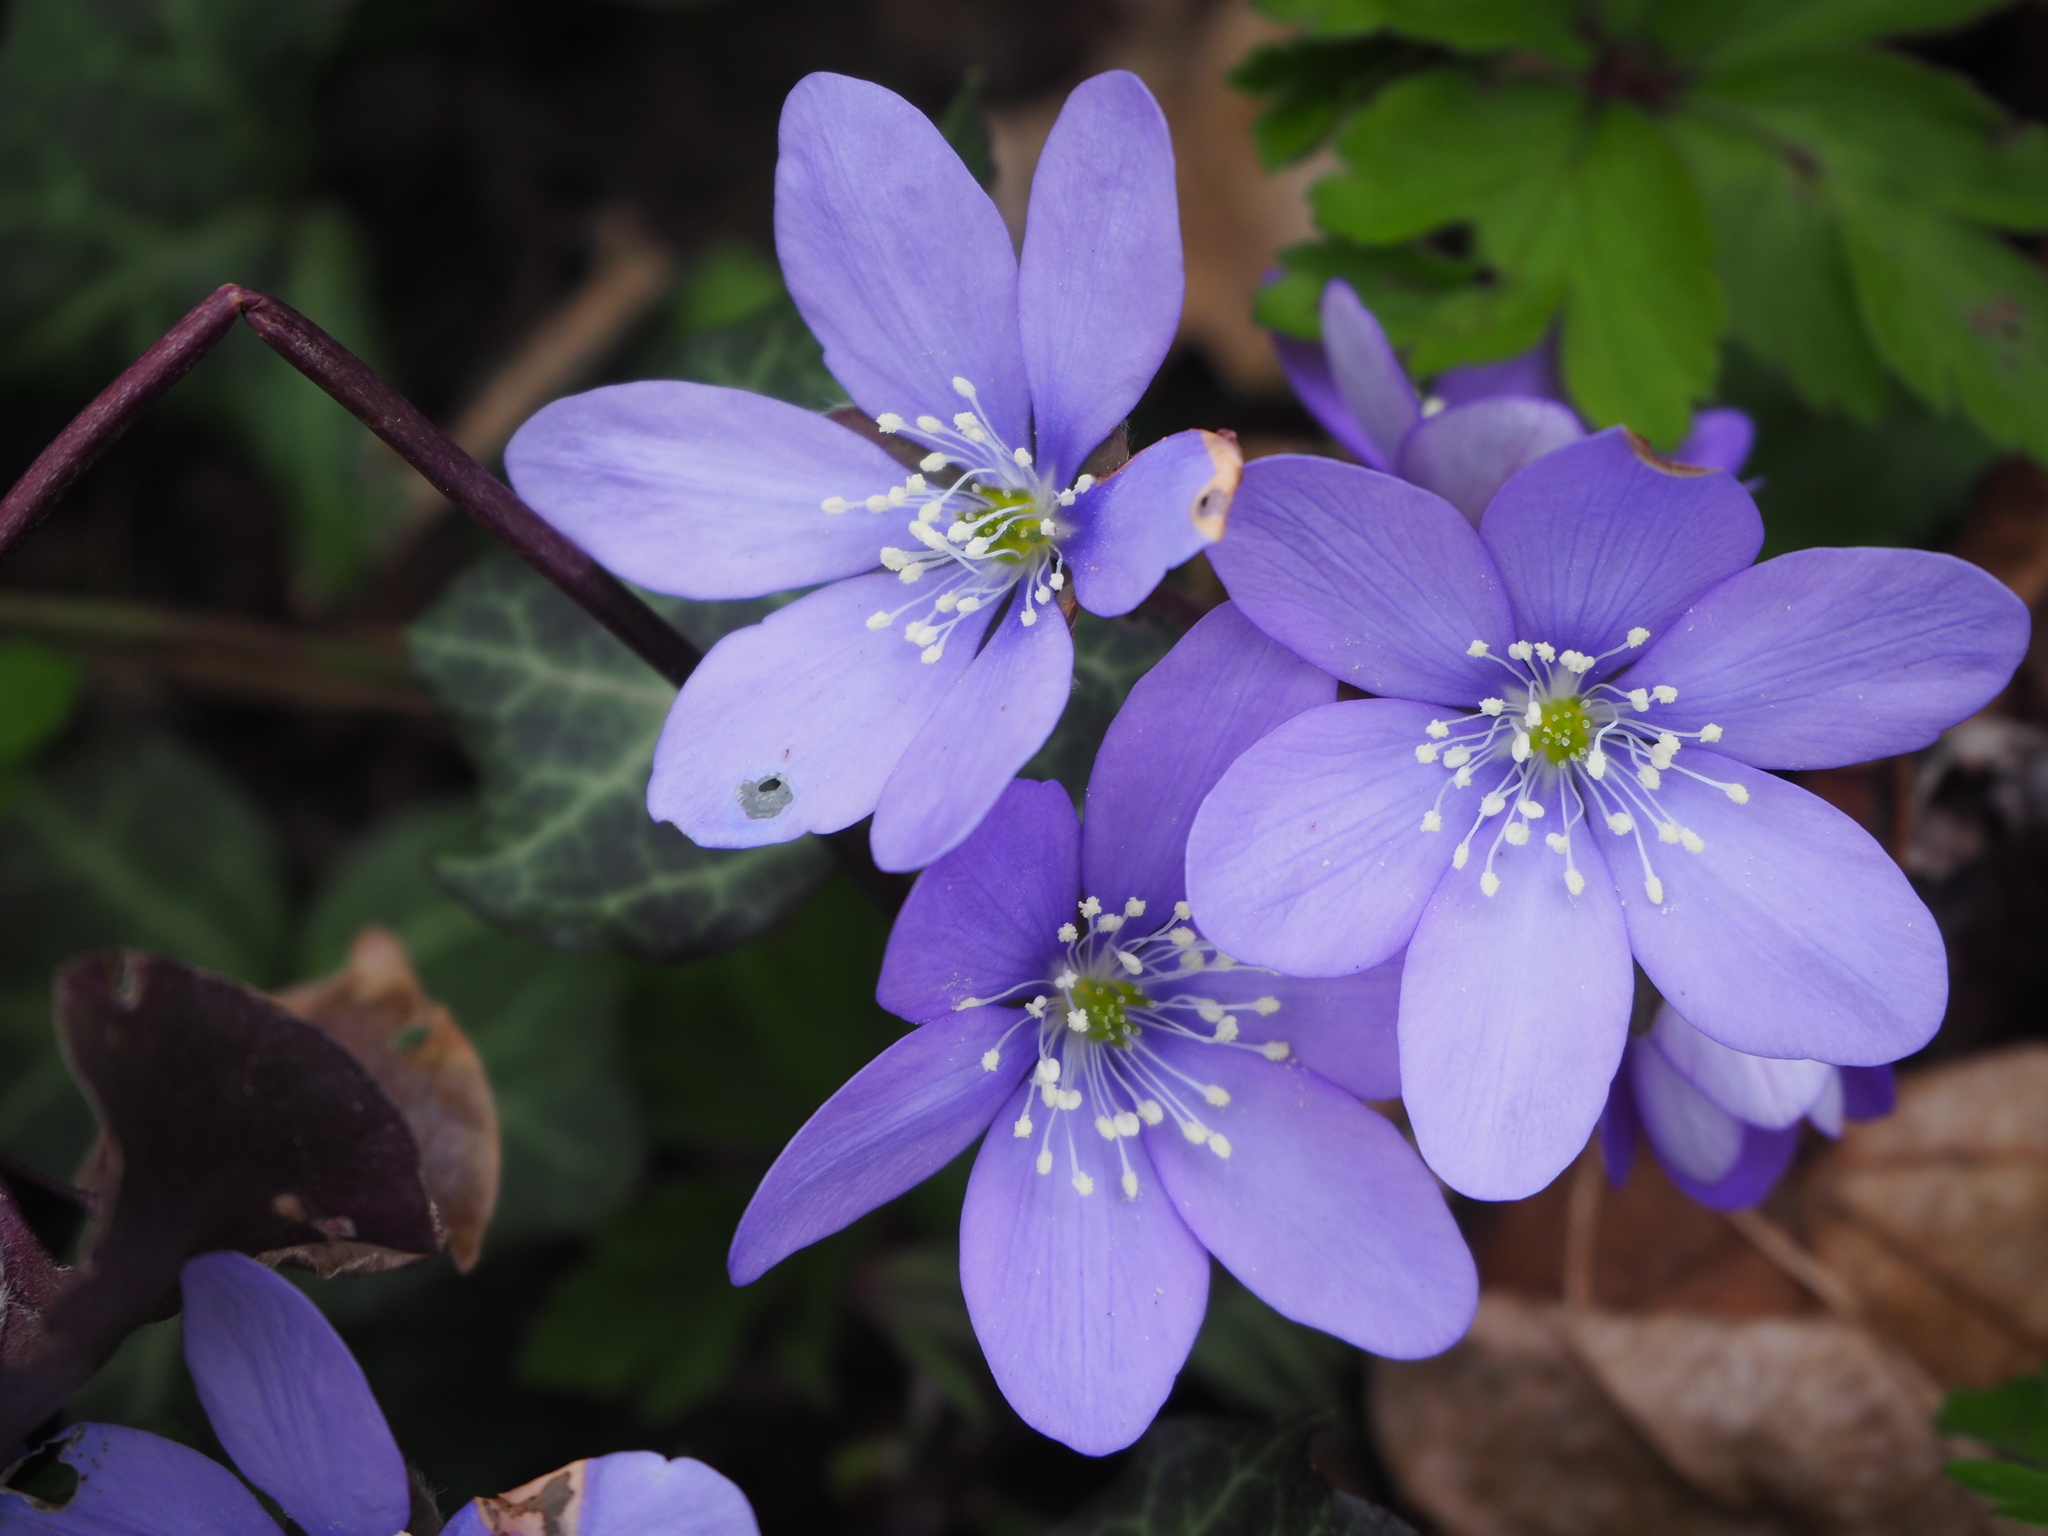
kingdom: Plantae
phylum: Tracheophyta
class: Magnoliopsida
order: Ranunculales
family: Ranunculaceae
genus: Hepatica
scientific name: Hepatica nobilis
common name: Liverleaf
